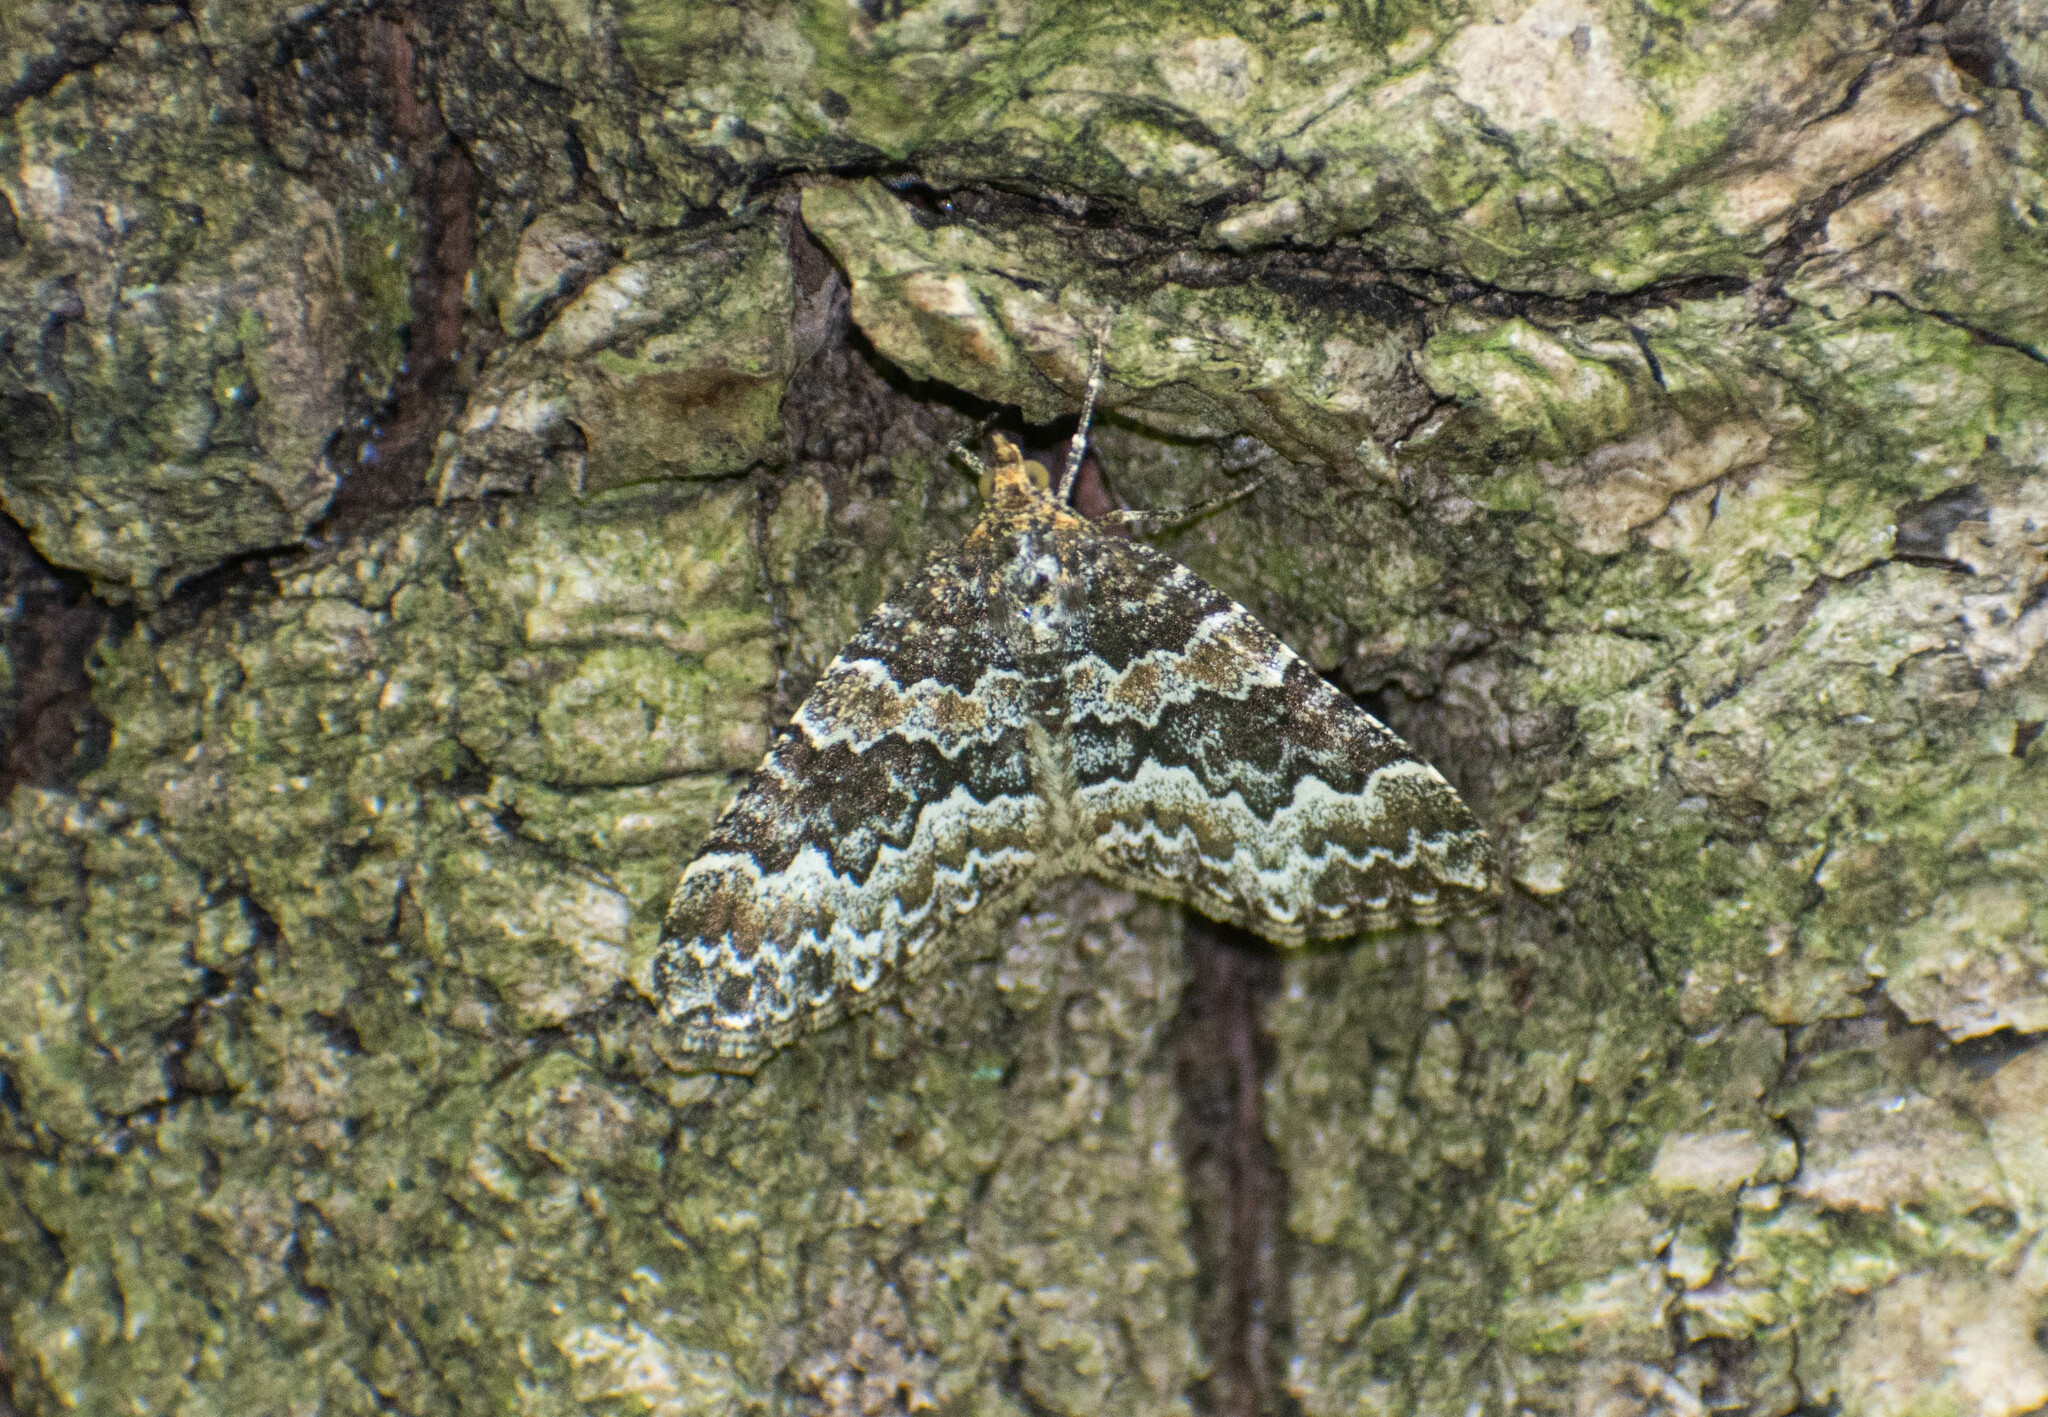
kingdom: Animalia
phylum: Arthropoda
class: Insecta
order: Lepidoptera
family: Geometridae
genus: Electrophaes
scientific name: Electrophaes corylata
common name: Broken-barred carpet
